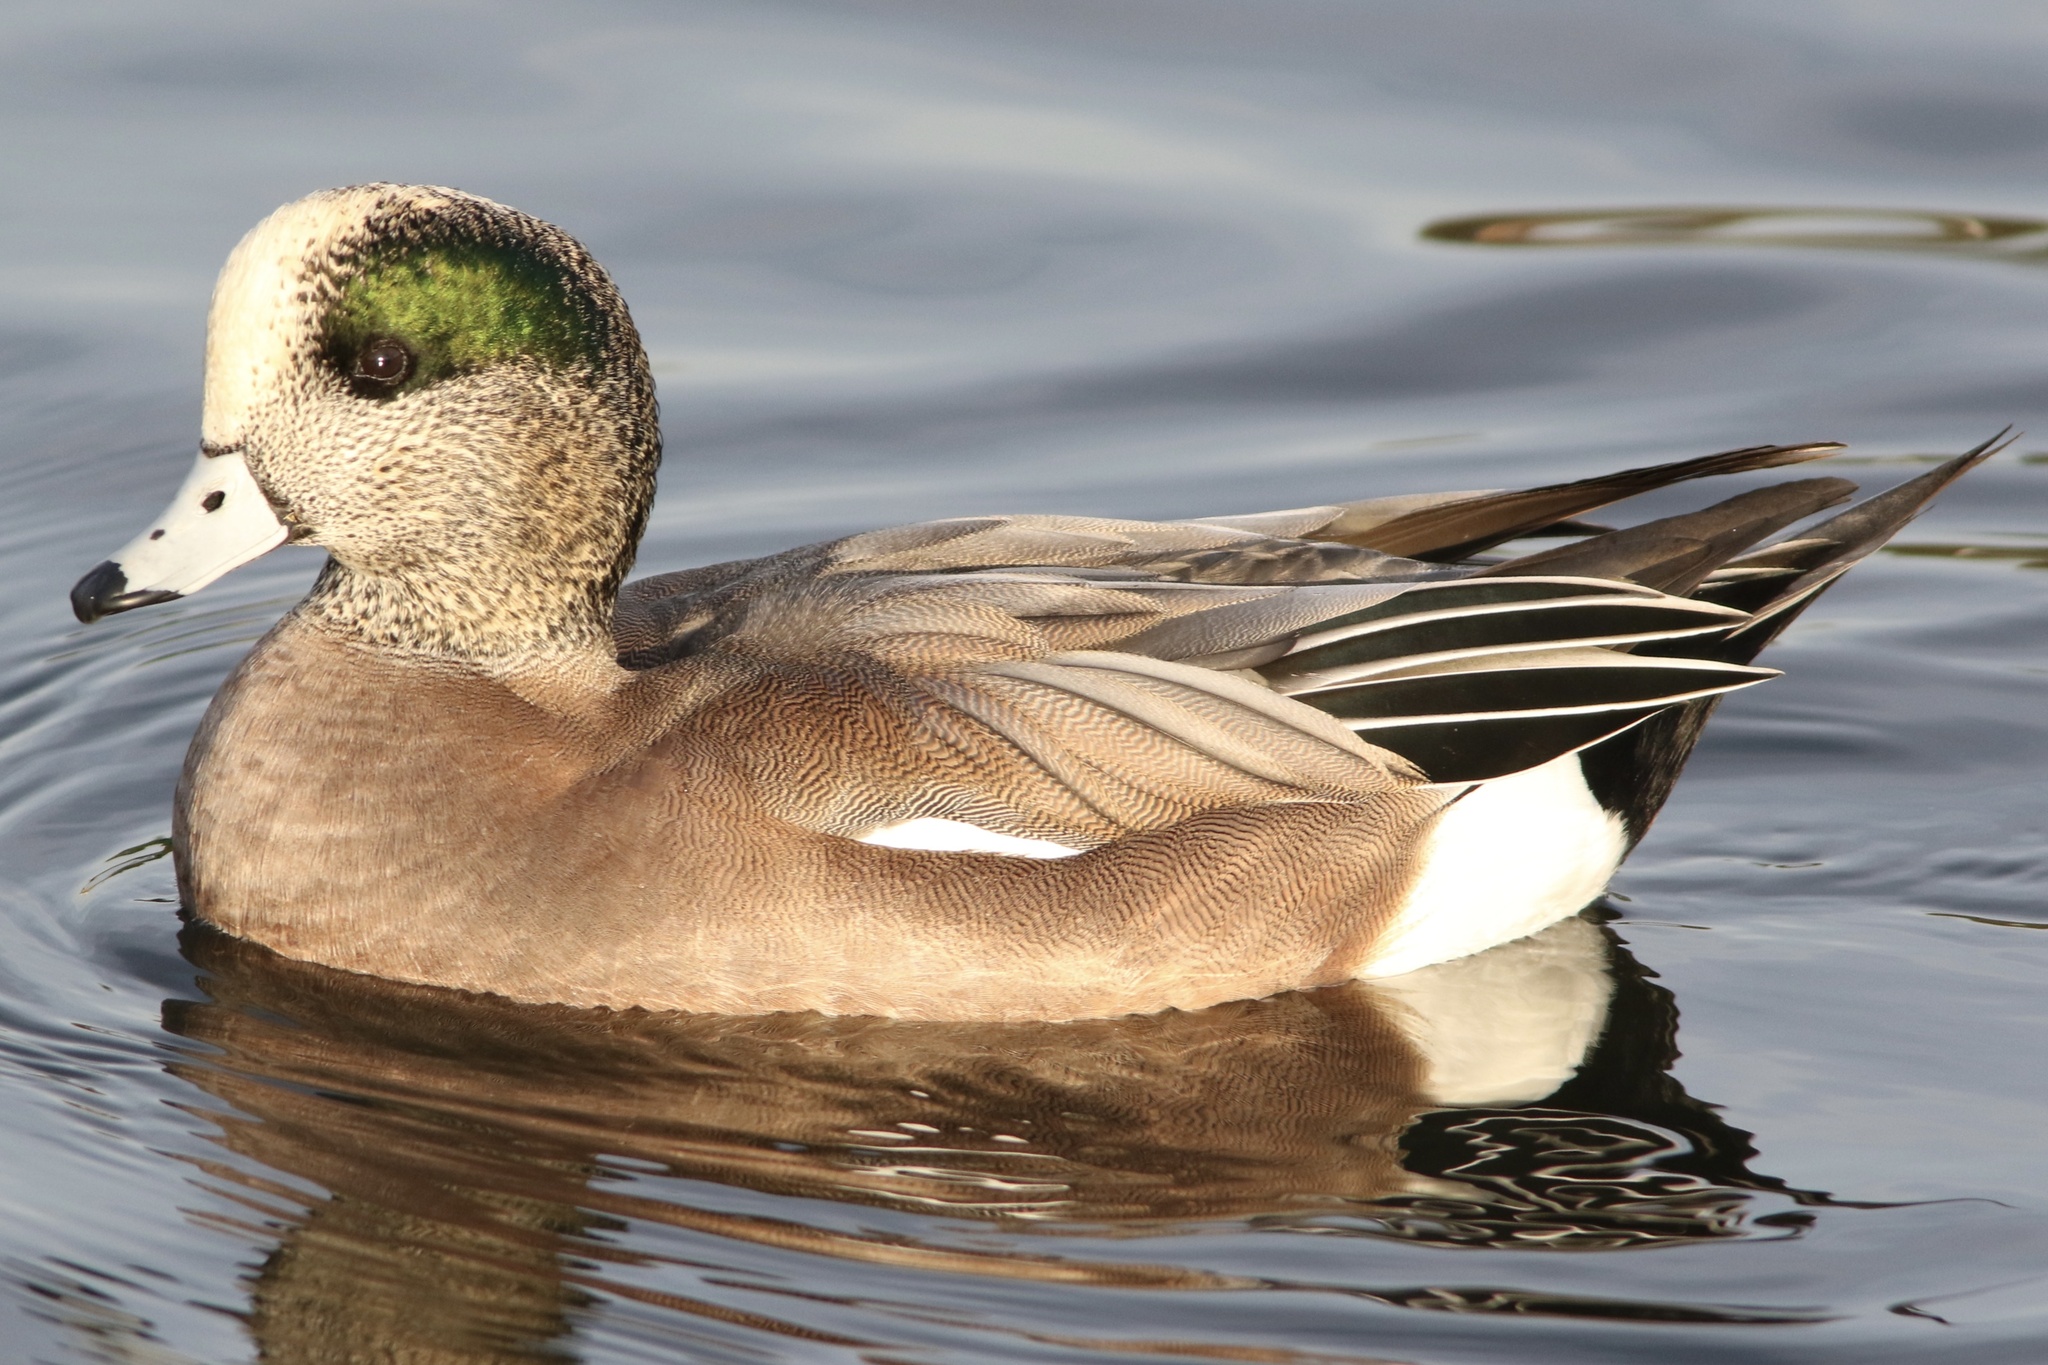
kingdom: Animalia
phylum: Chordata
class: Aves
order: Anseriformes
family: Anatidae
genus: Mareca
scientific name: Mareca americana
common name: American wigeon
